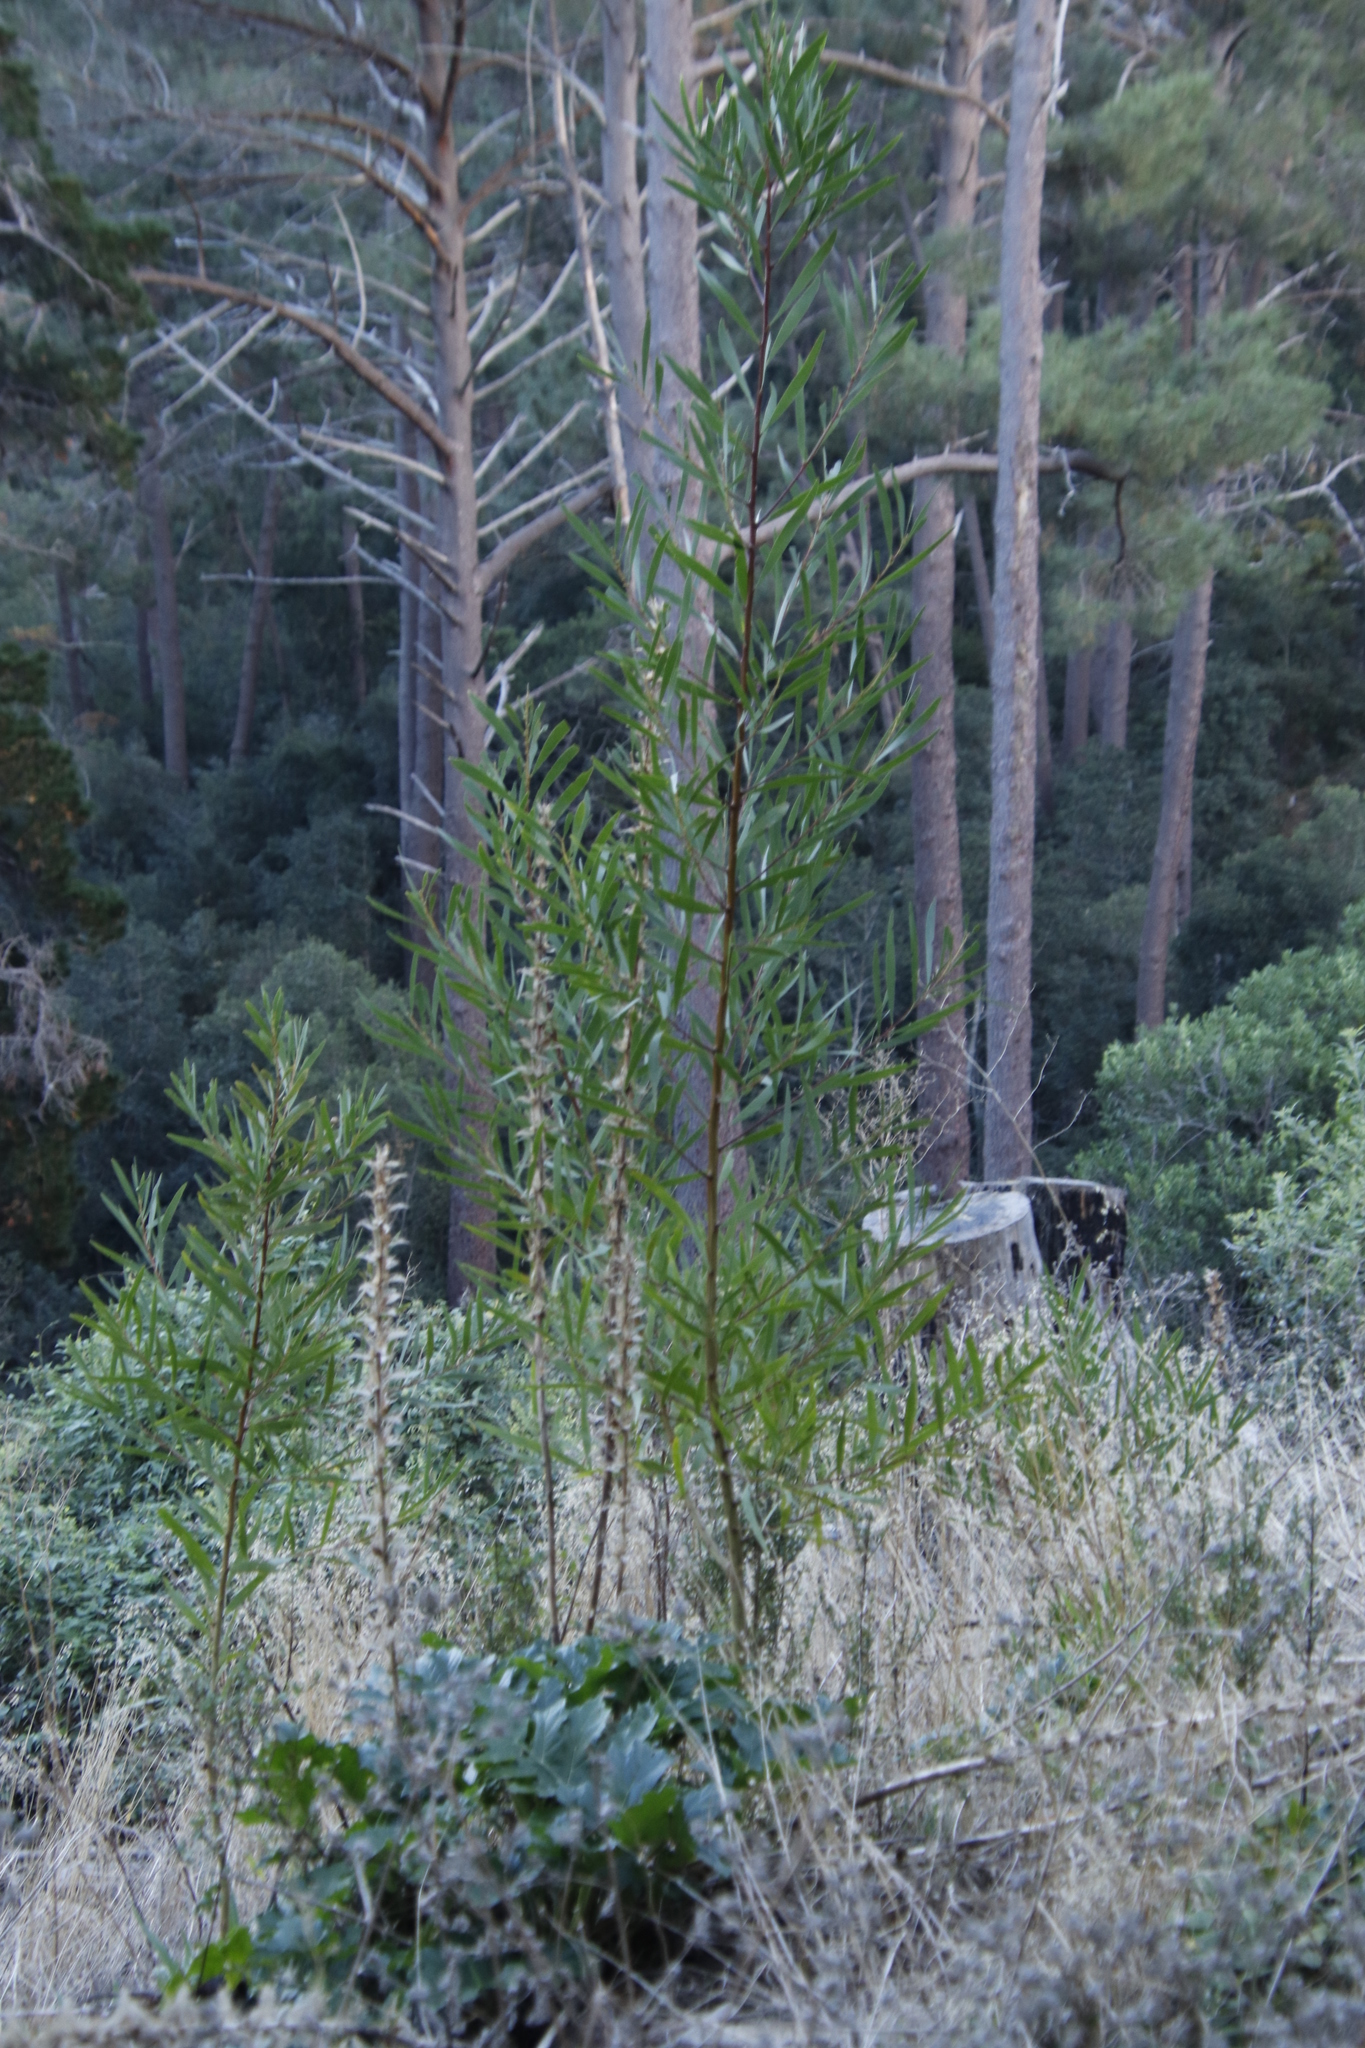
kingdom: Plantae
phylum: Tracheophyta
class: Magnoliopsida
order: Fabales
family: Fabaceae
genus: Acacia
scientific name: Acacia longifolia
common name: Sydney golden wattle
